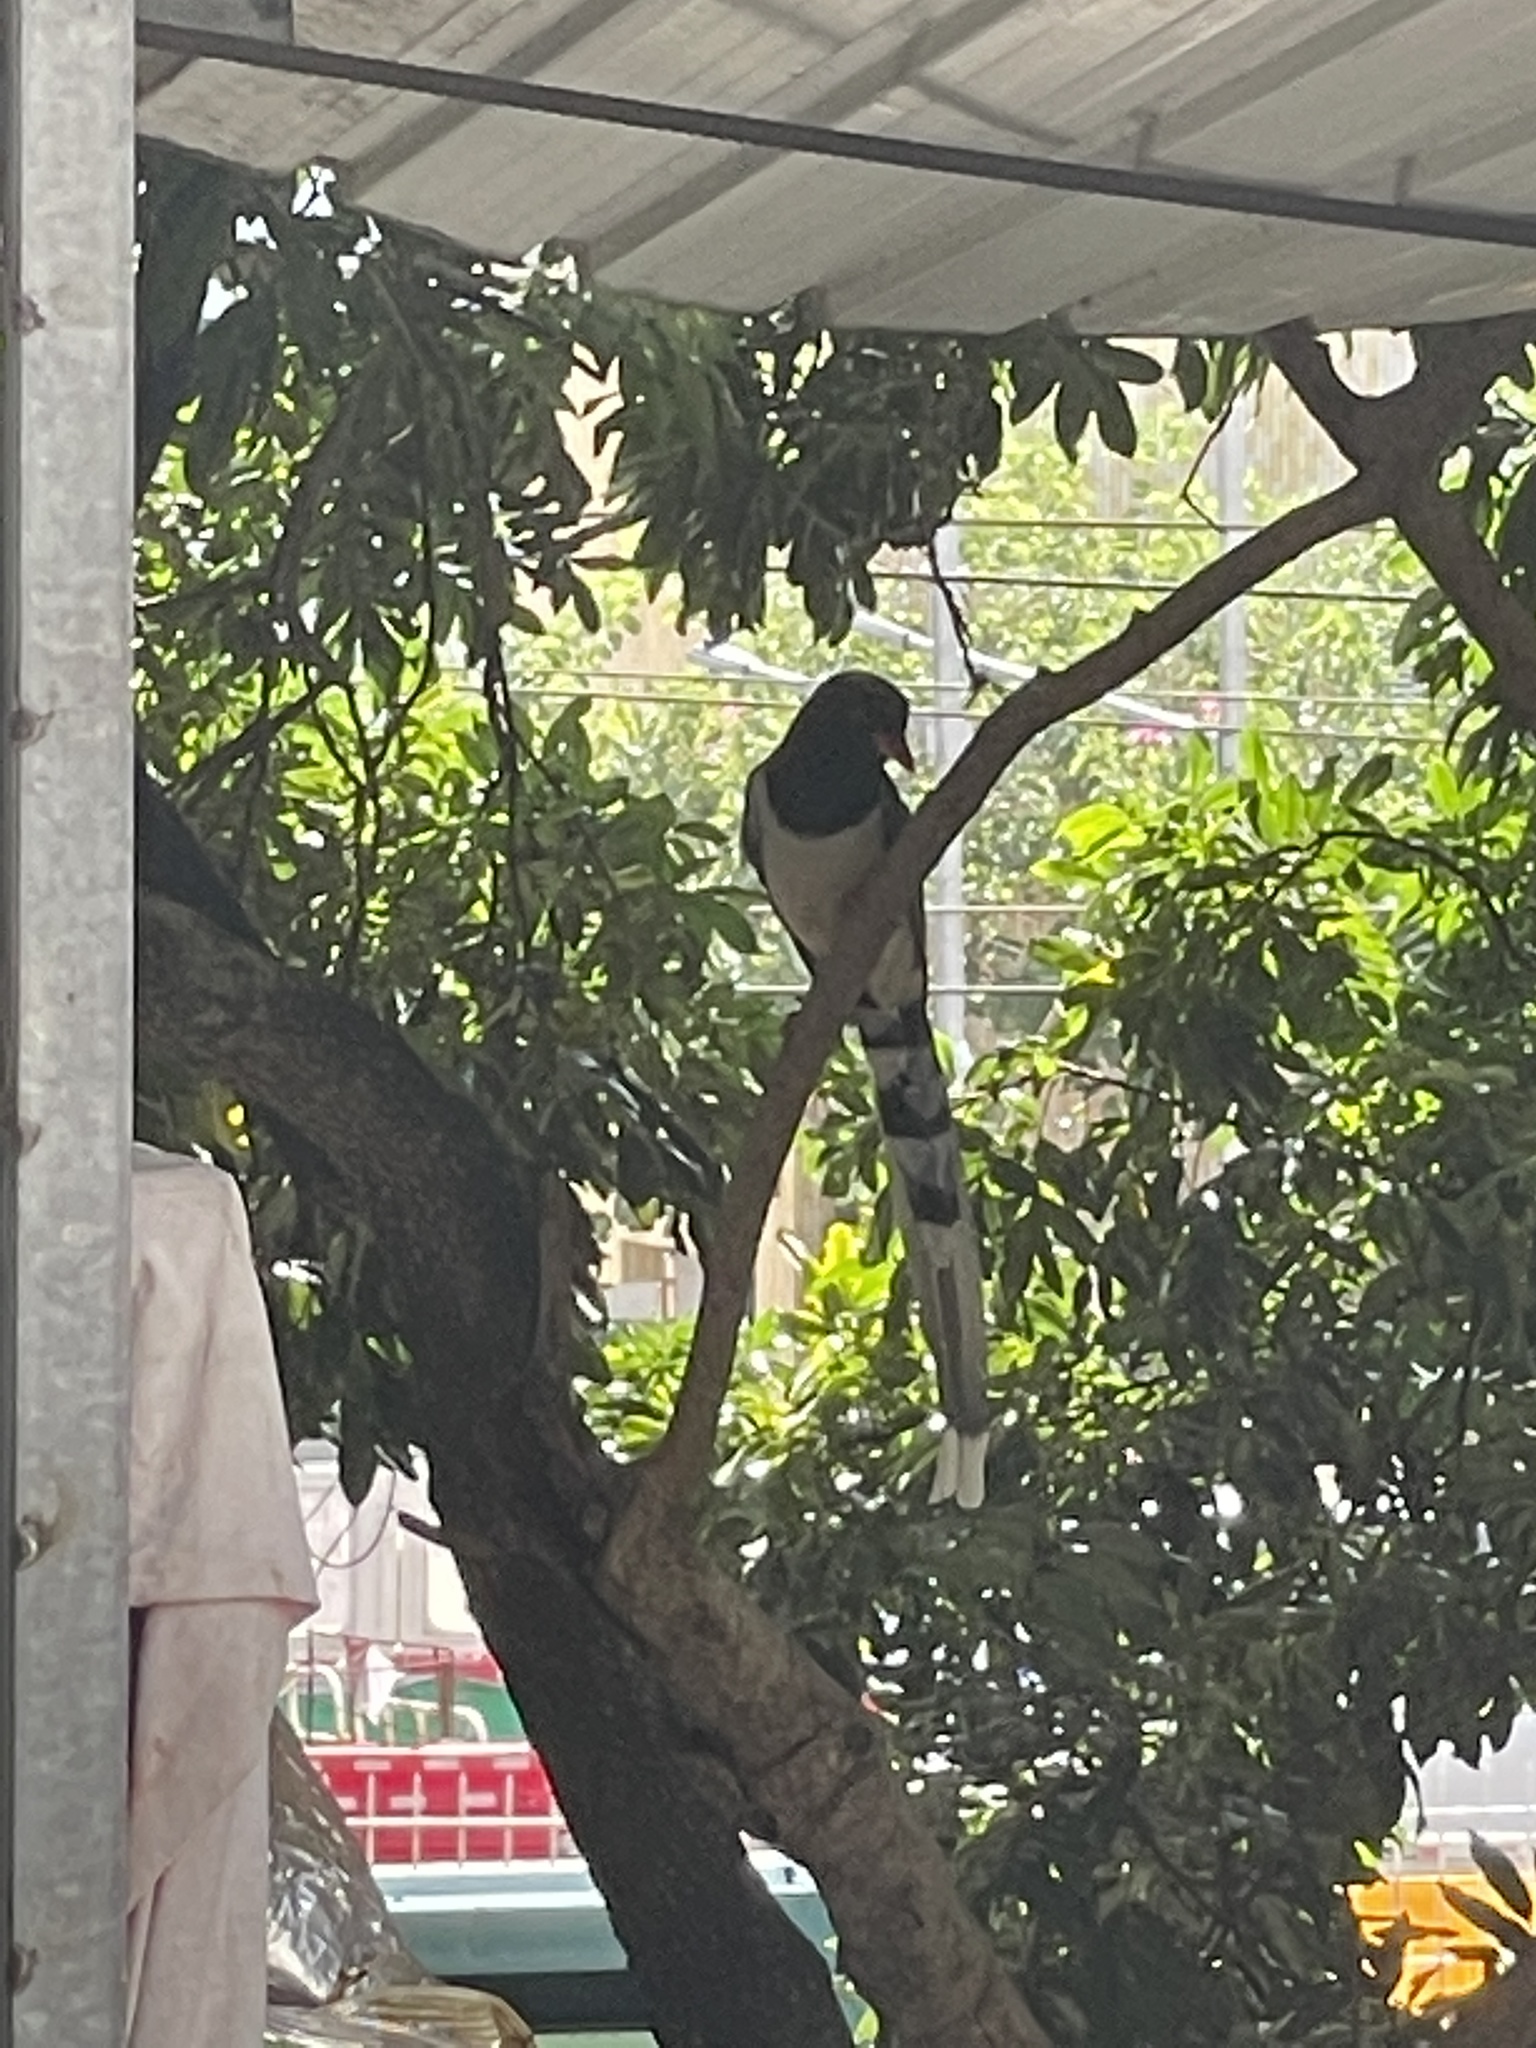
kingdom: Animalia
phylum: Chordata
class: Aves
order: Passeriformes
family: Corvidae
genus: Urocissa
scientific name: Urocissa erythroryncha
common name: Red-billed blue magpie
